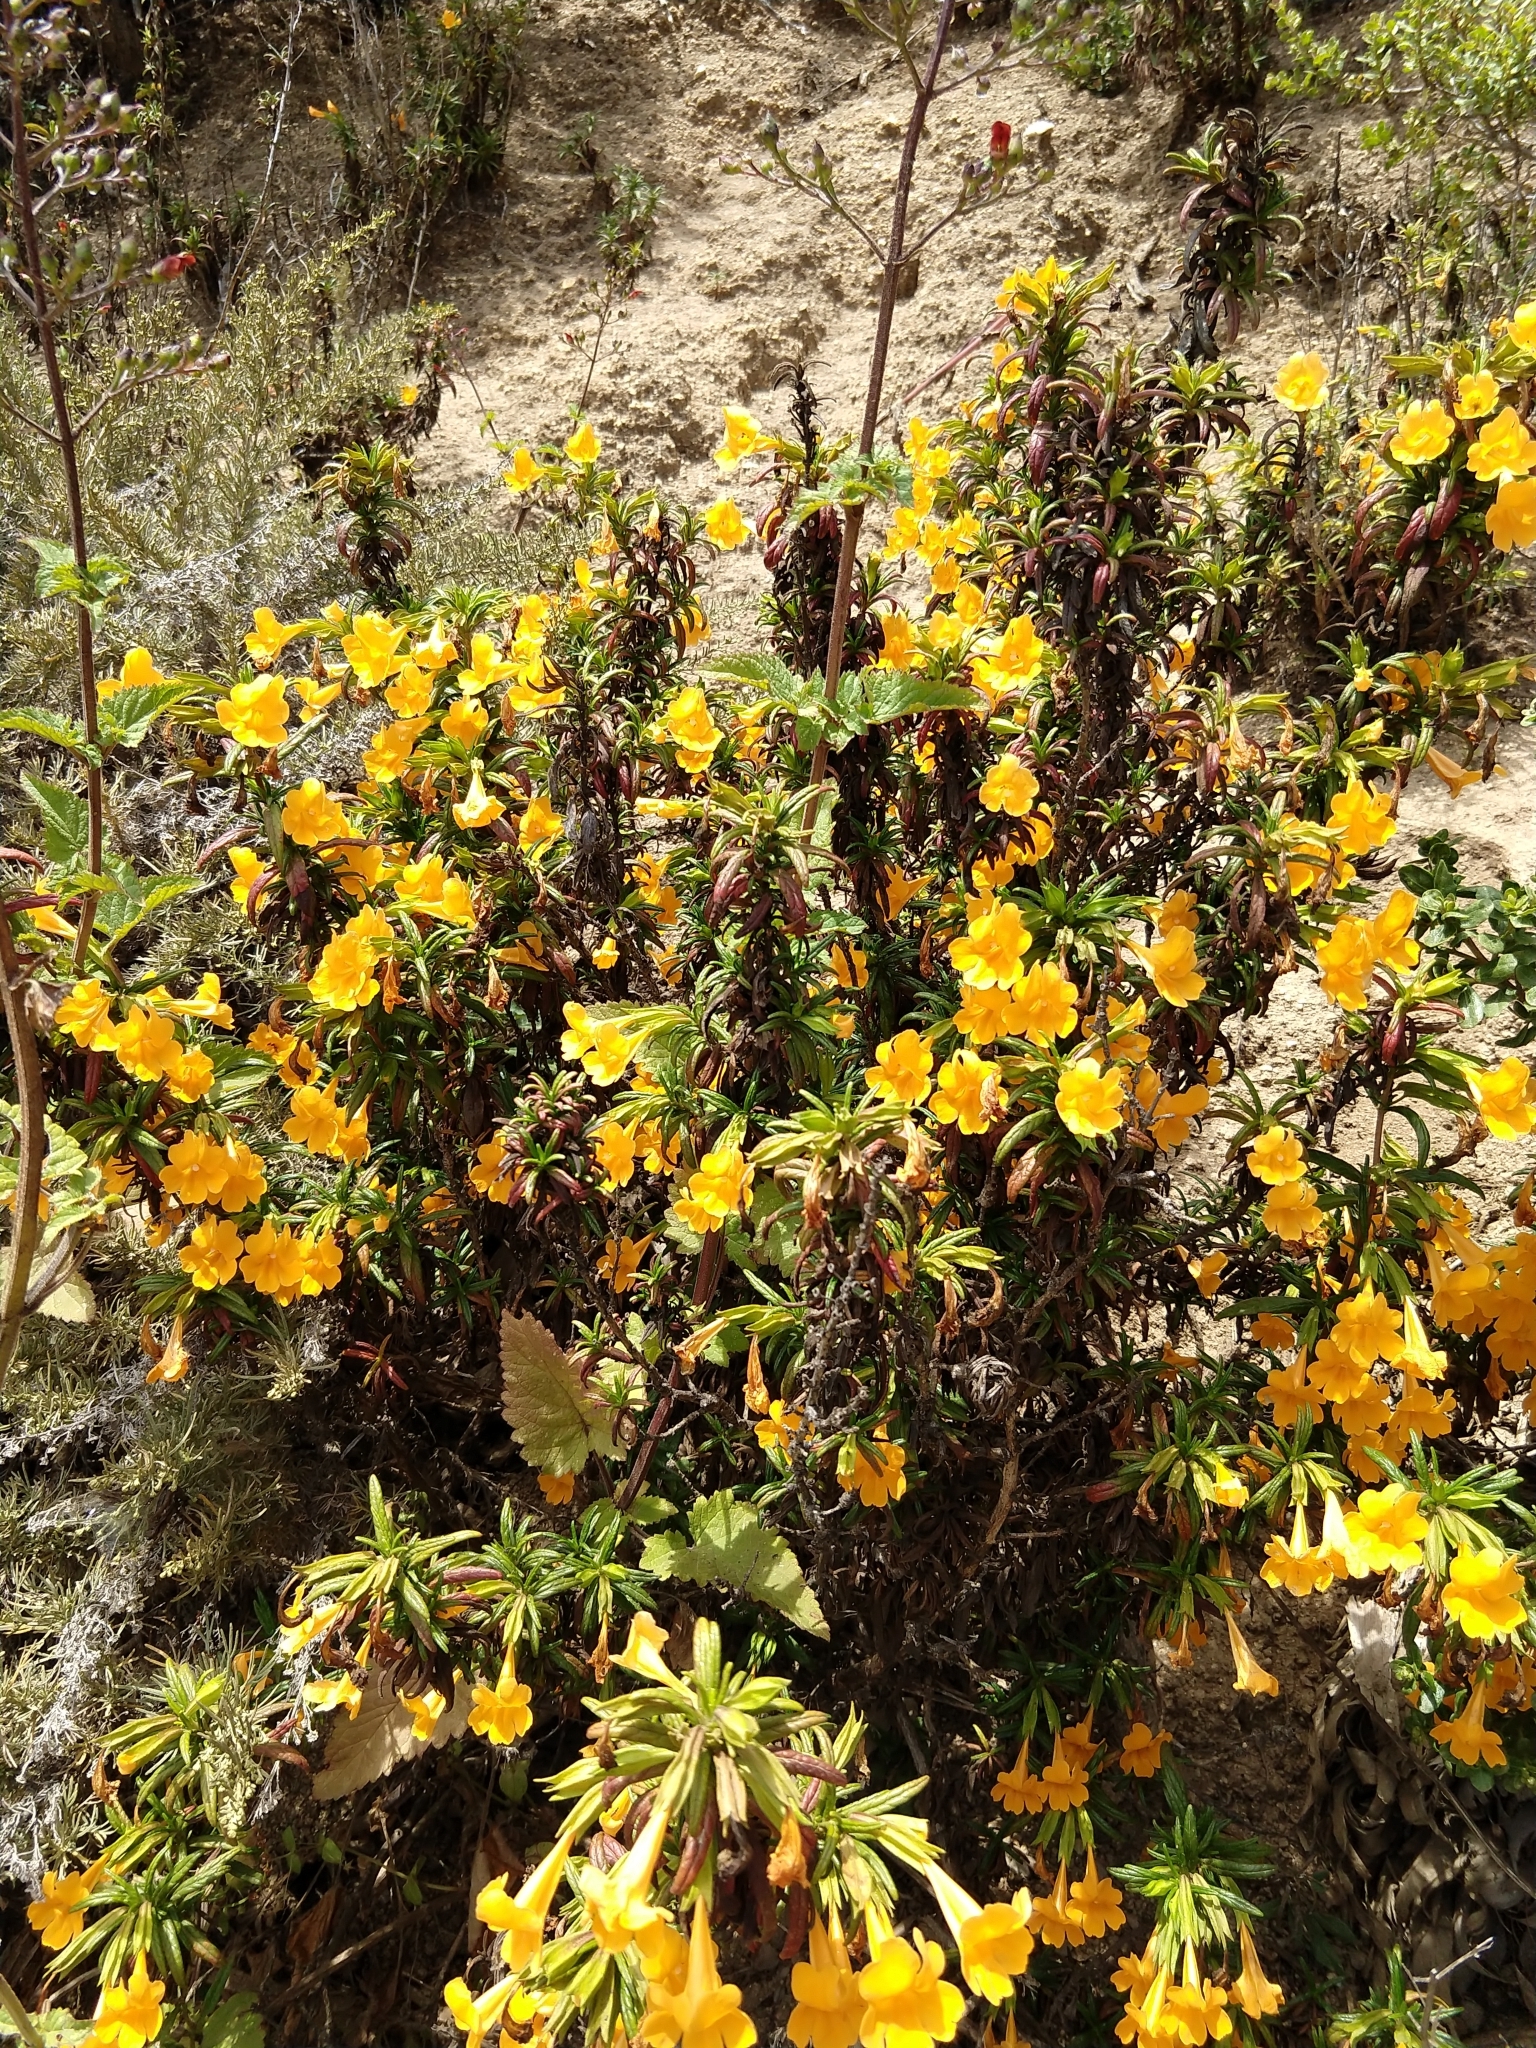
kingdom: Plantae
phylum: Tracheophyta
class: Magnoliopsida
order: Lamiales
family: Phrymaceae
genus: Diplacus
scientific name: Diplacus aurantiacus
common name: Bush monkey-flower
